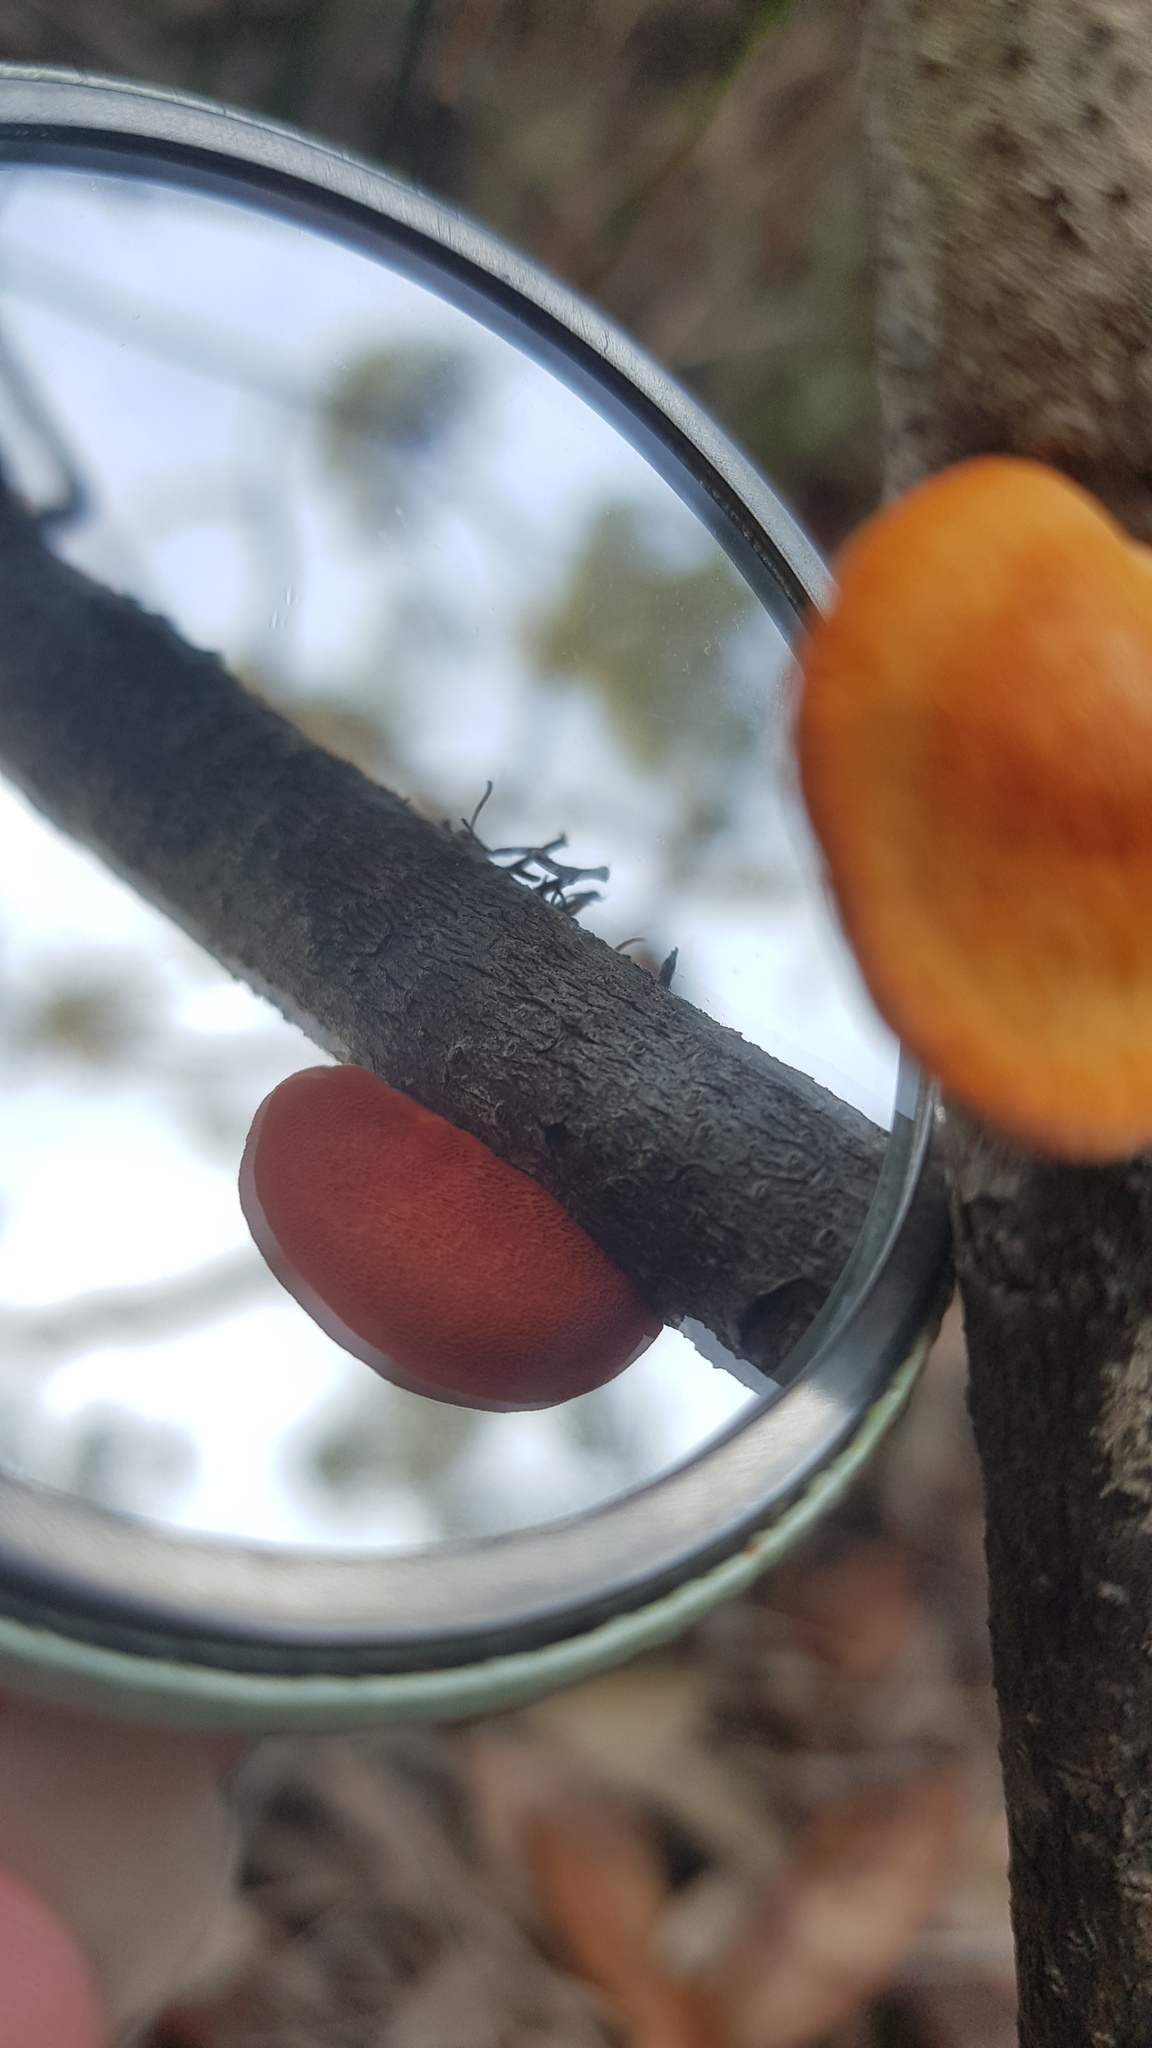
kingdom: Fungi
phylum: Basidiomycota
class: Agaricomycetes
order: Polyporales
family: Polyporaceae
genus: Trametes
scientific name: Trametes coccinea
